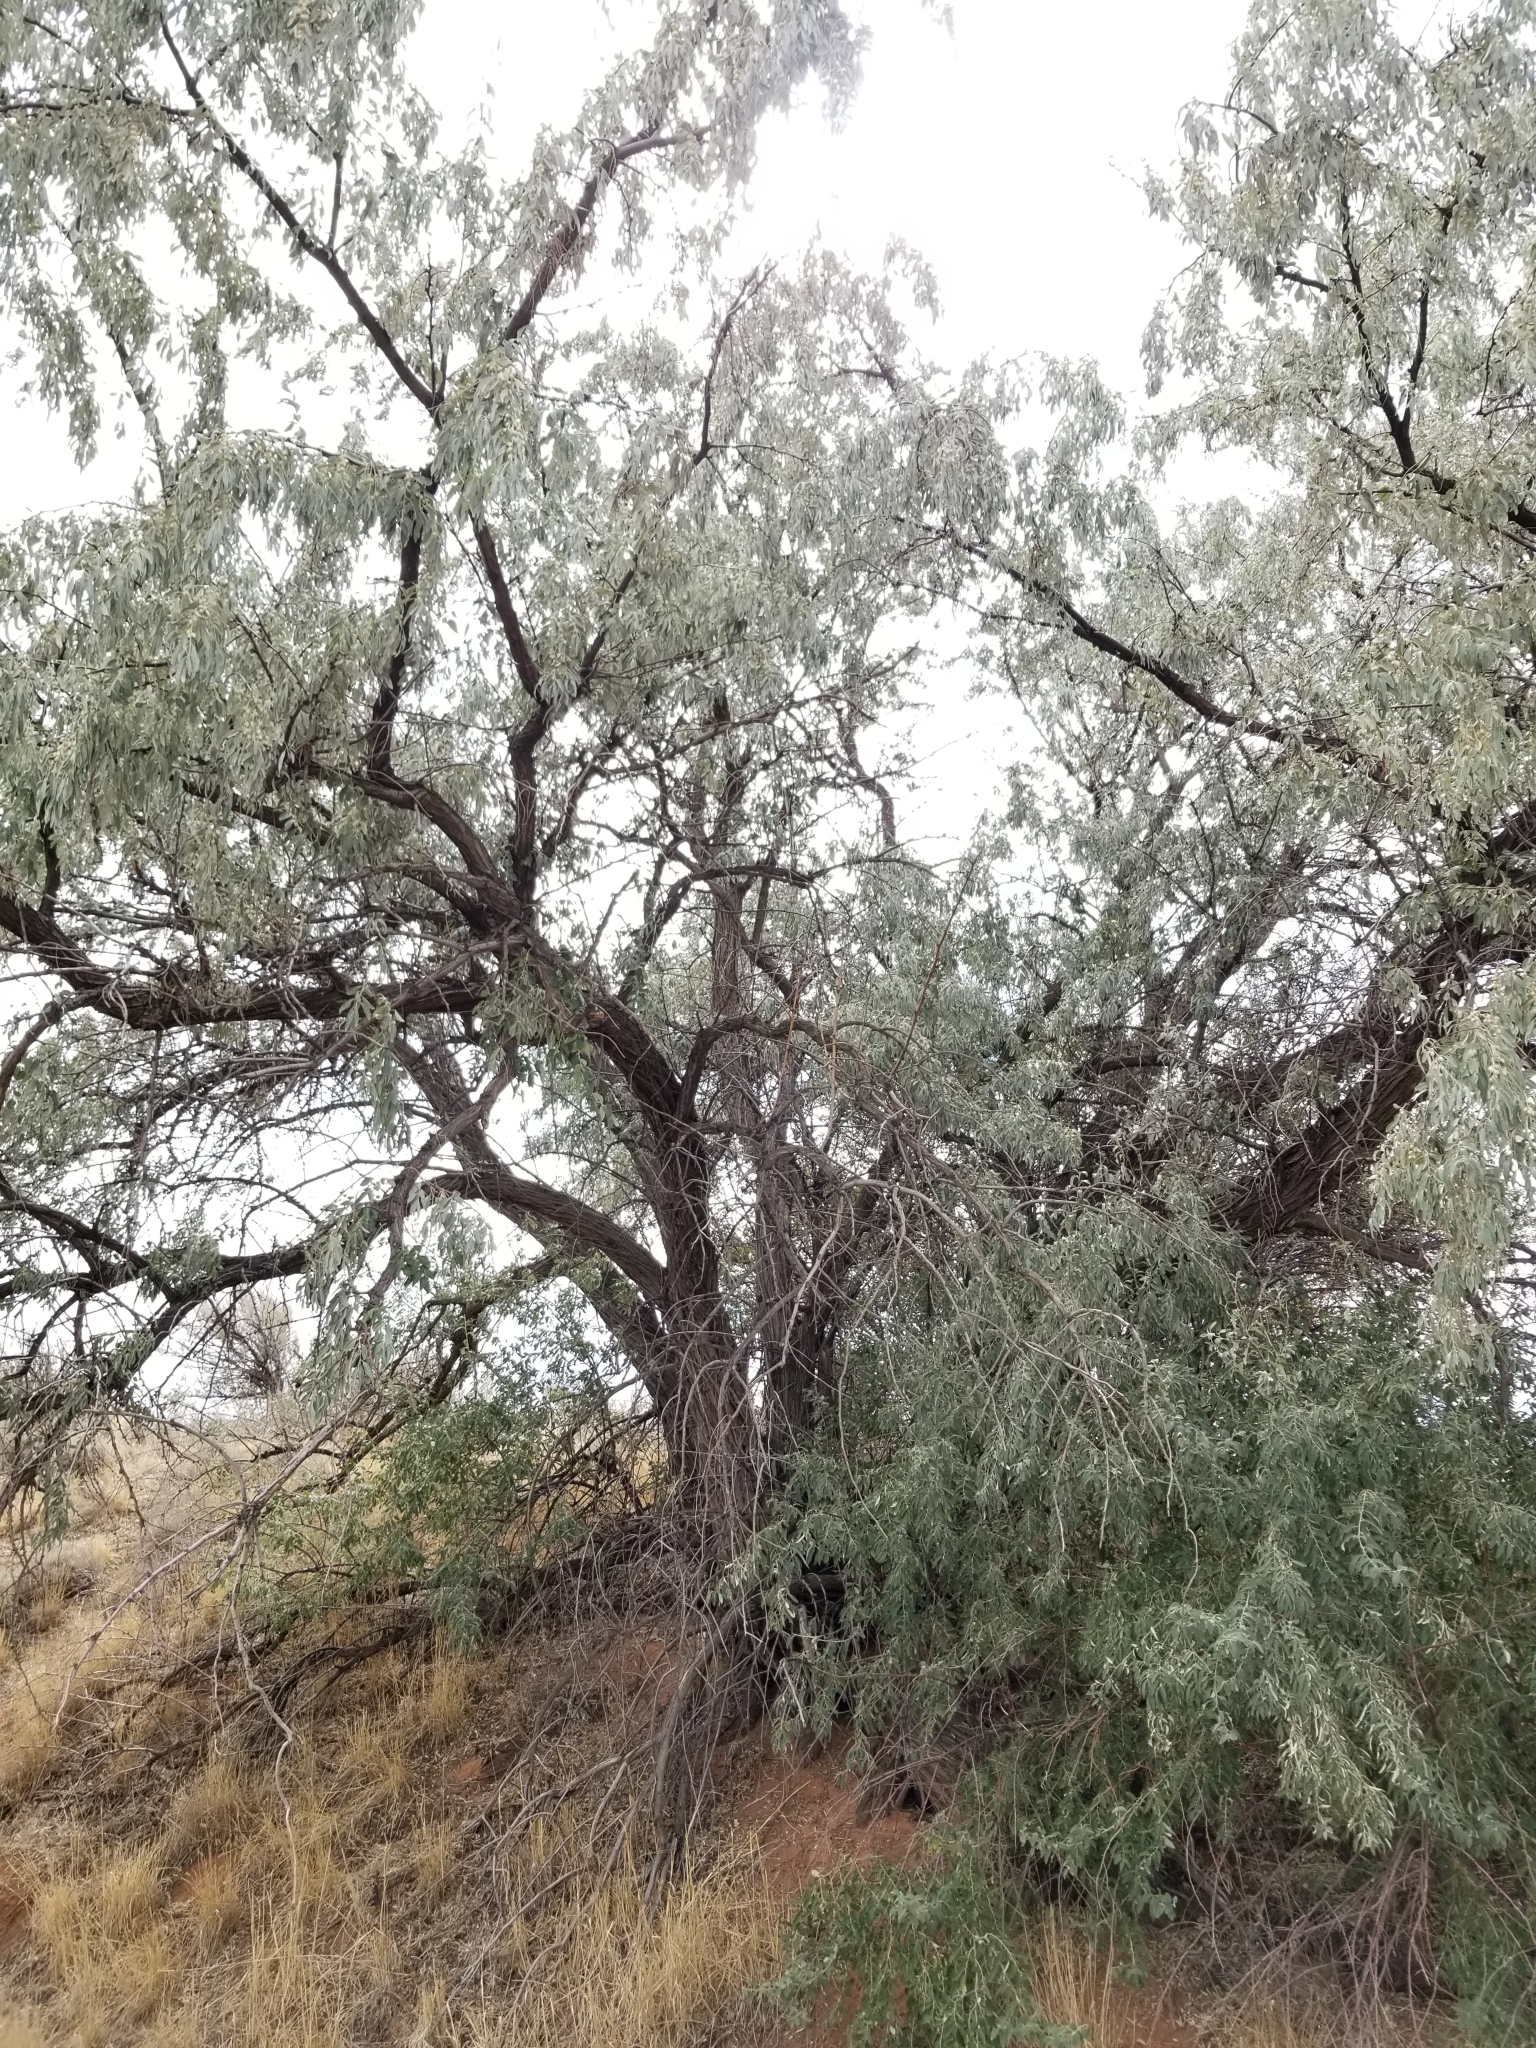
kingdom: Plantae
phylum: Tracheophyta
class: Magnoliopsida
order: Rosales
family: Elaeagnaceae
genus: Elaeagnus
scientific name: Elaeagnus angustifolia
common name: Russian olive
